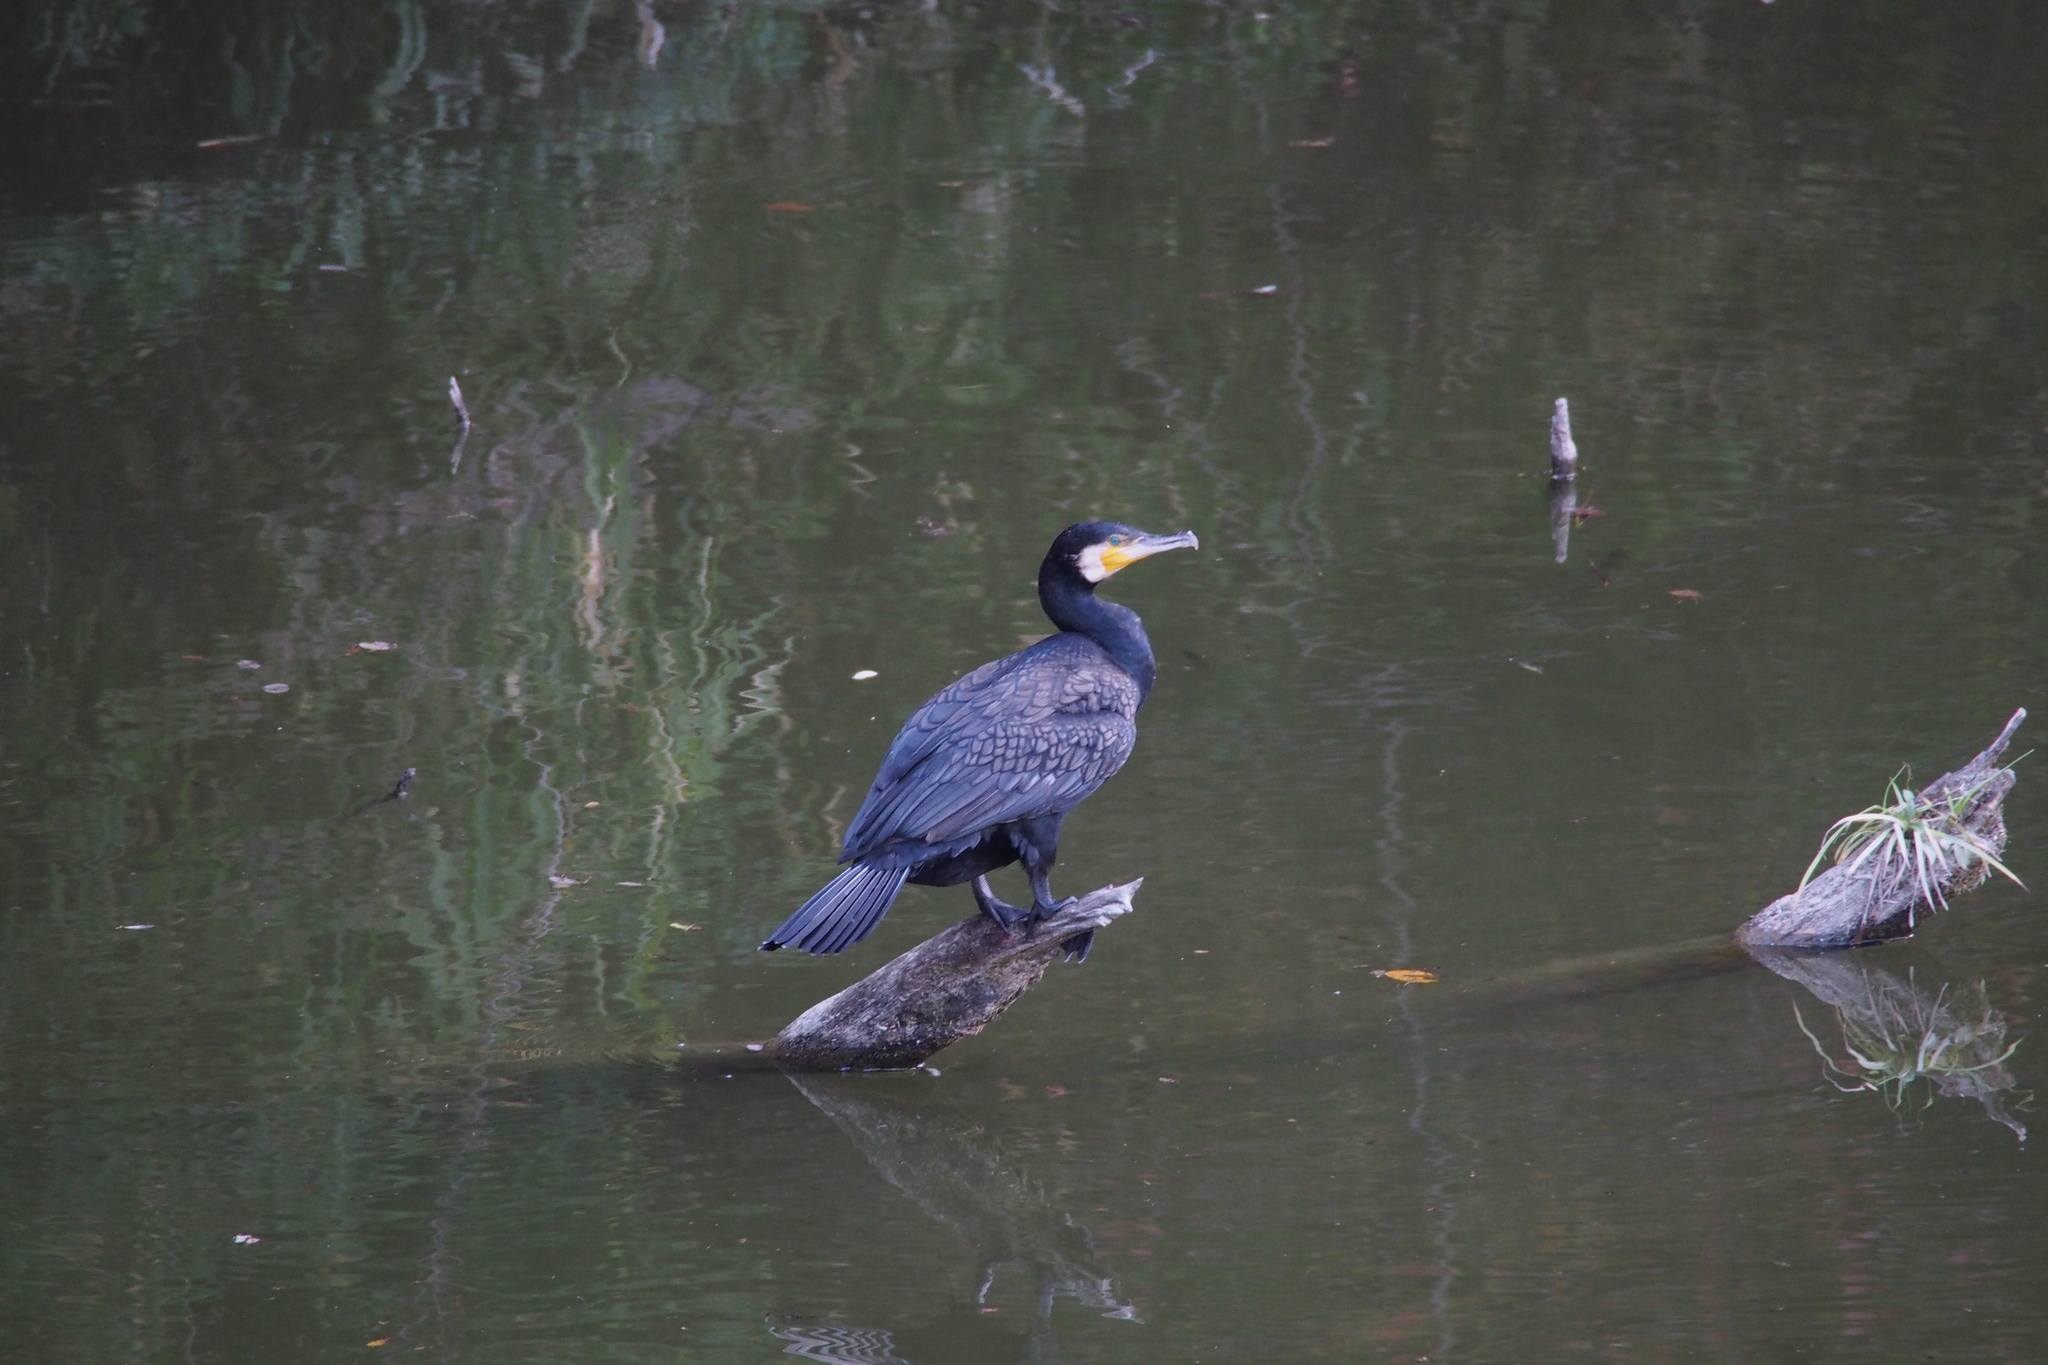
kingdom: Animalia
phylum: Chordata
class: Aves
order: Suliformes
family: Phalacrocoracidae
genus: Phalacrocorax
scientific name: Phalacrocorax carbo
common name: Great cormorant
